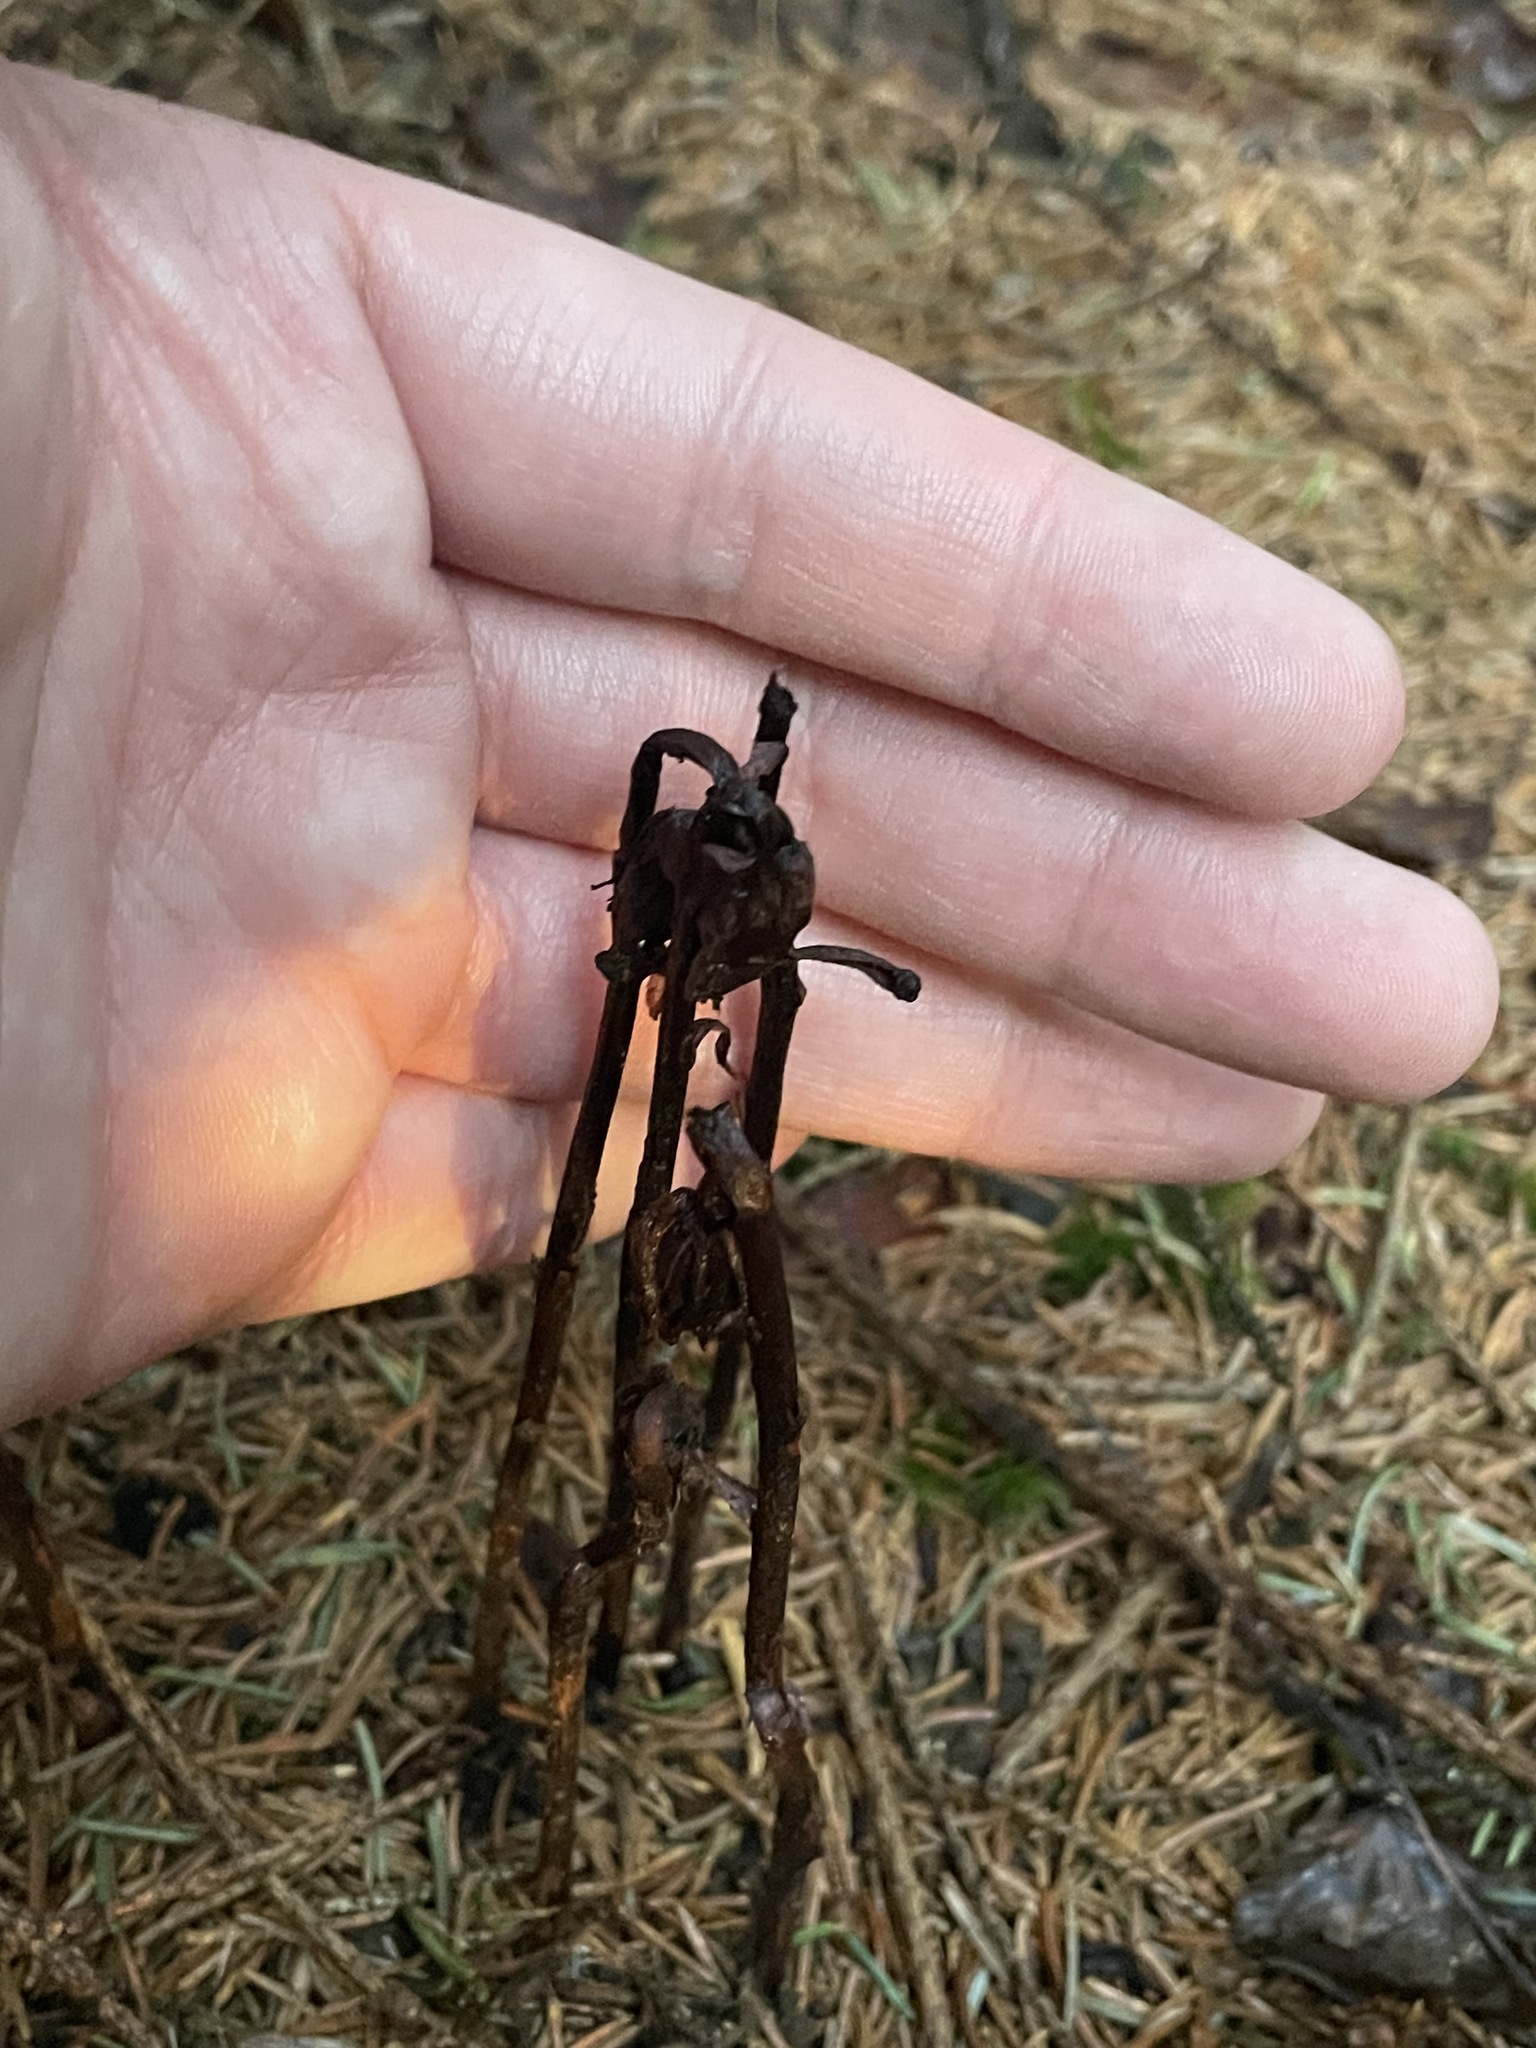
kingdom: Plantae
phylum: Tracheophyta
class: Magnoliopsida
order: Ericales
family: Ericaceae
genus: Monotropa
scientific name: Monotropa uniflora
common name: Convulsion root
